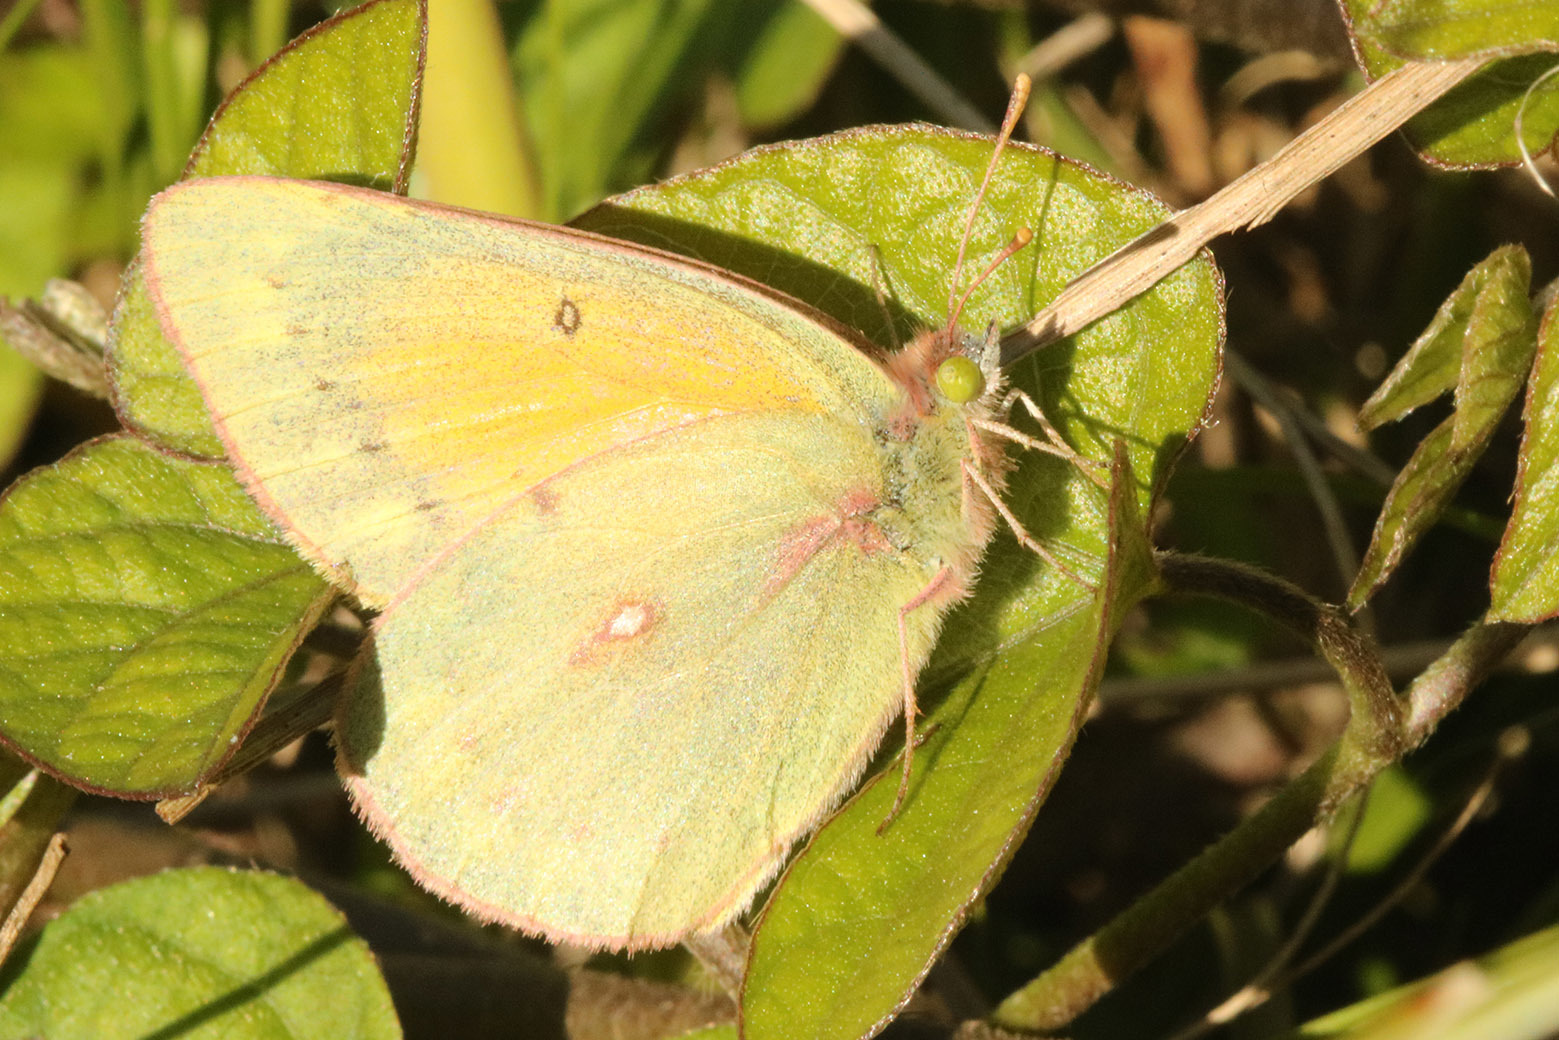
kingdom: Animalia
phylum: Arthropoda
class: Insecta
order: Lepidoptera
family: Pieridae
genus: Colias
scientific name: Colias lesbia
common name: Lesbia clouded yellow
